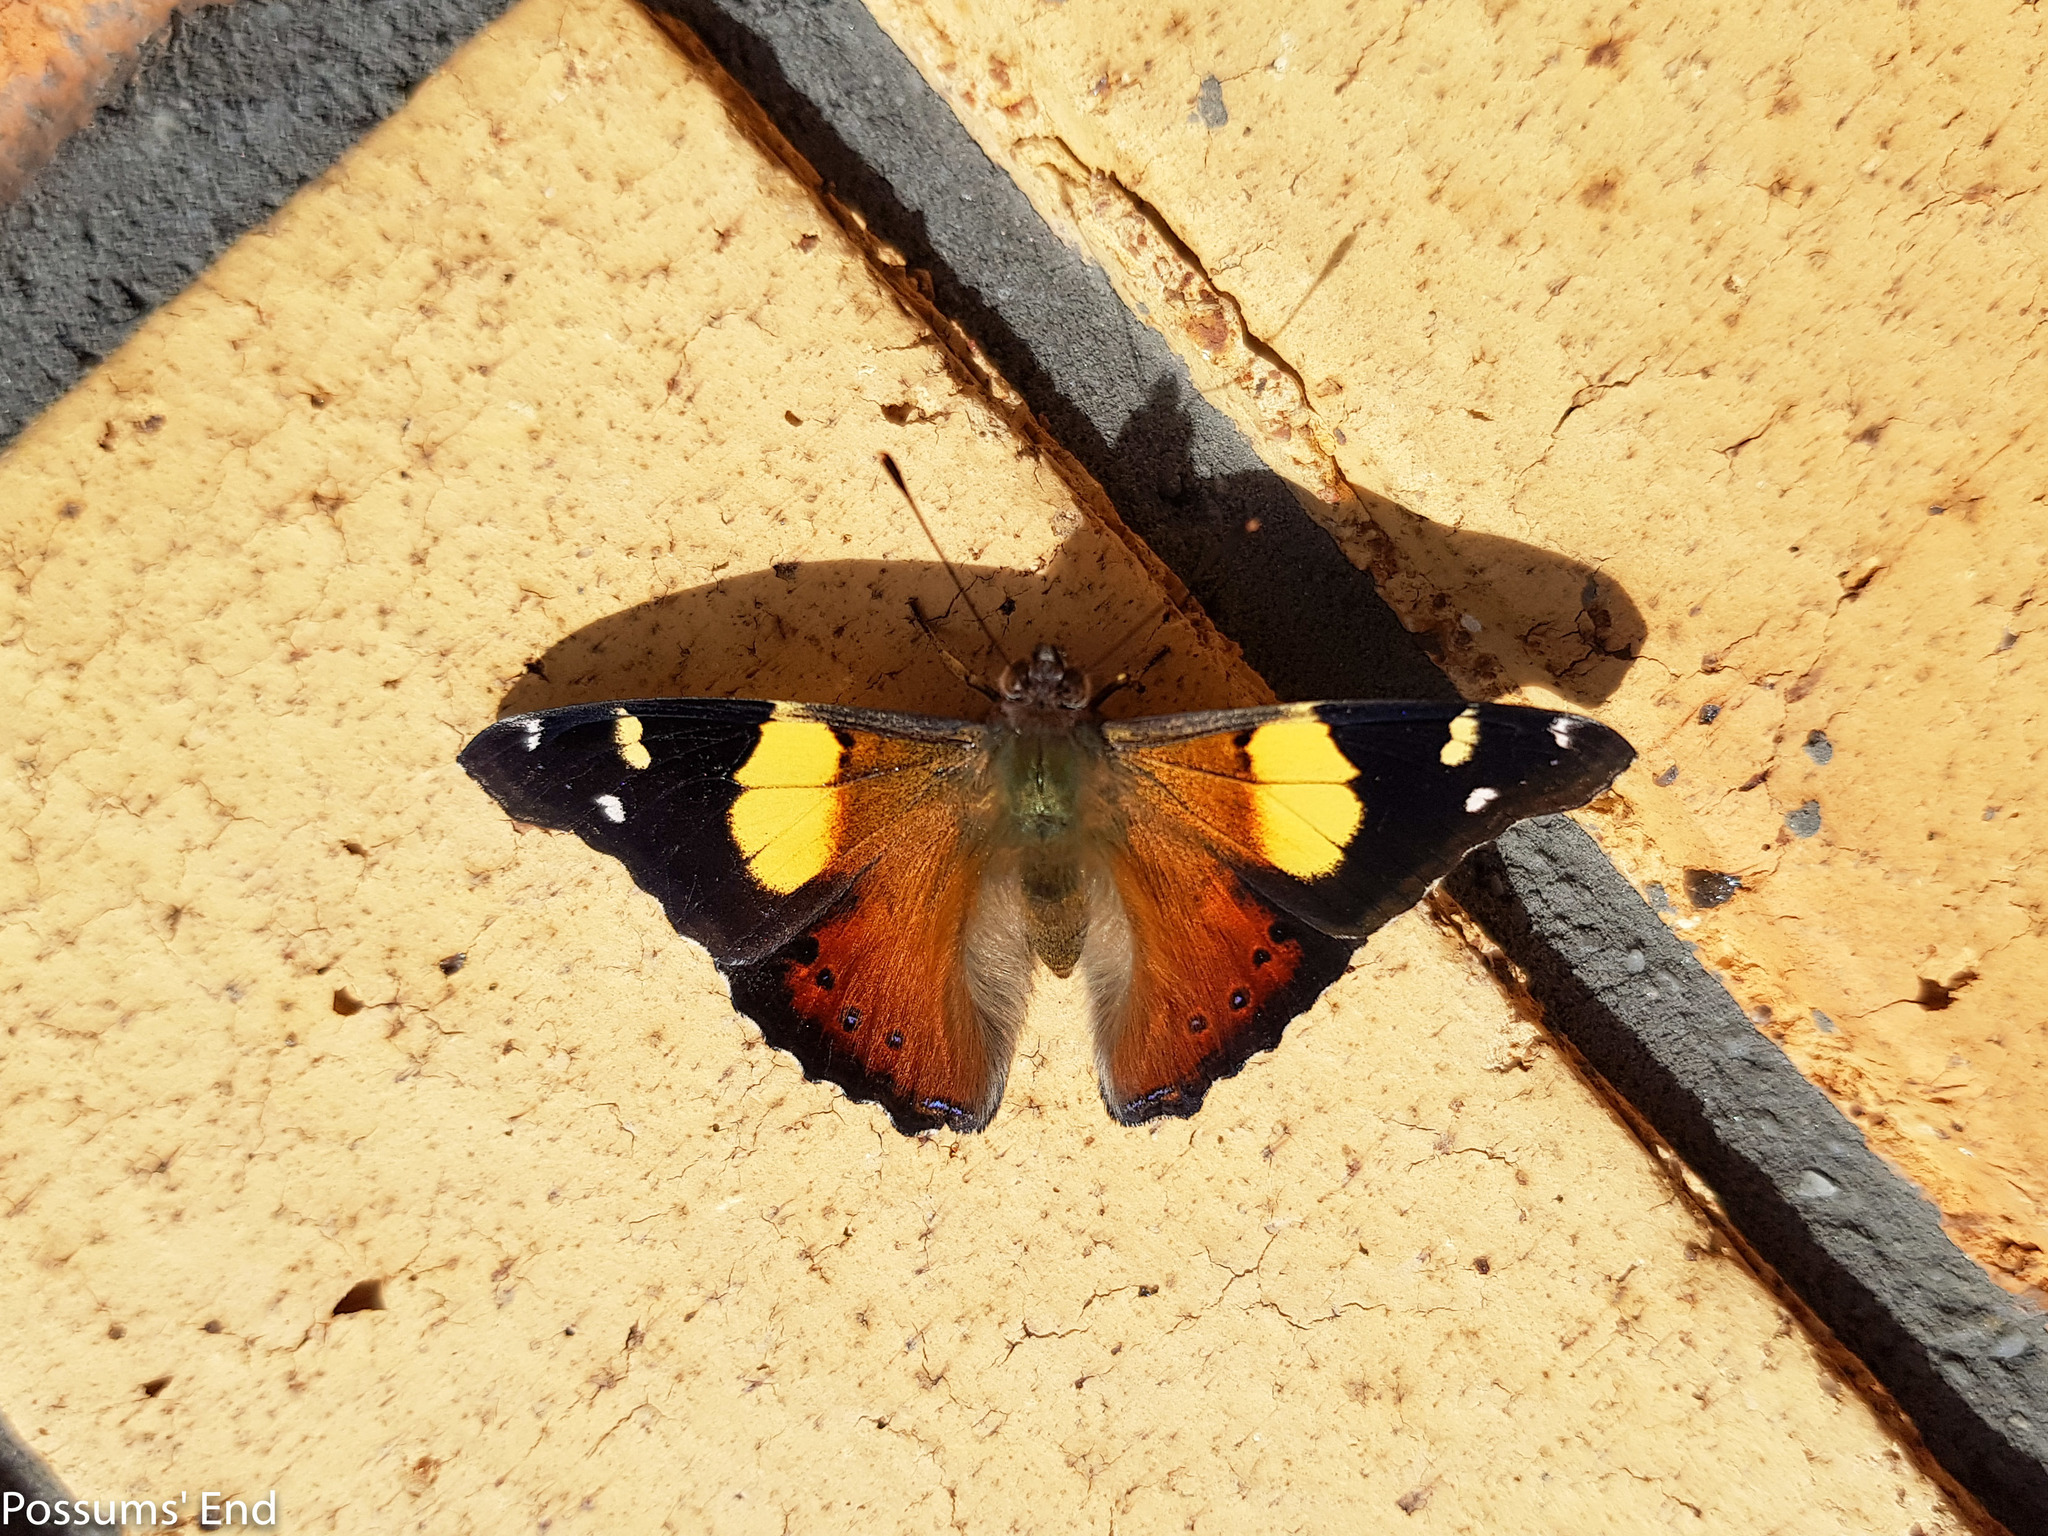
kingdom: Animalia
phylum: Arthropoda
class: Insecta
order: Lepidoptera
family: Nymphalidae
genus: Vanessa
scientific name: Vanessa itea
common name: Yellow admiral
